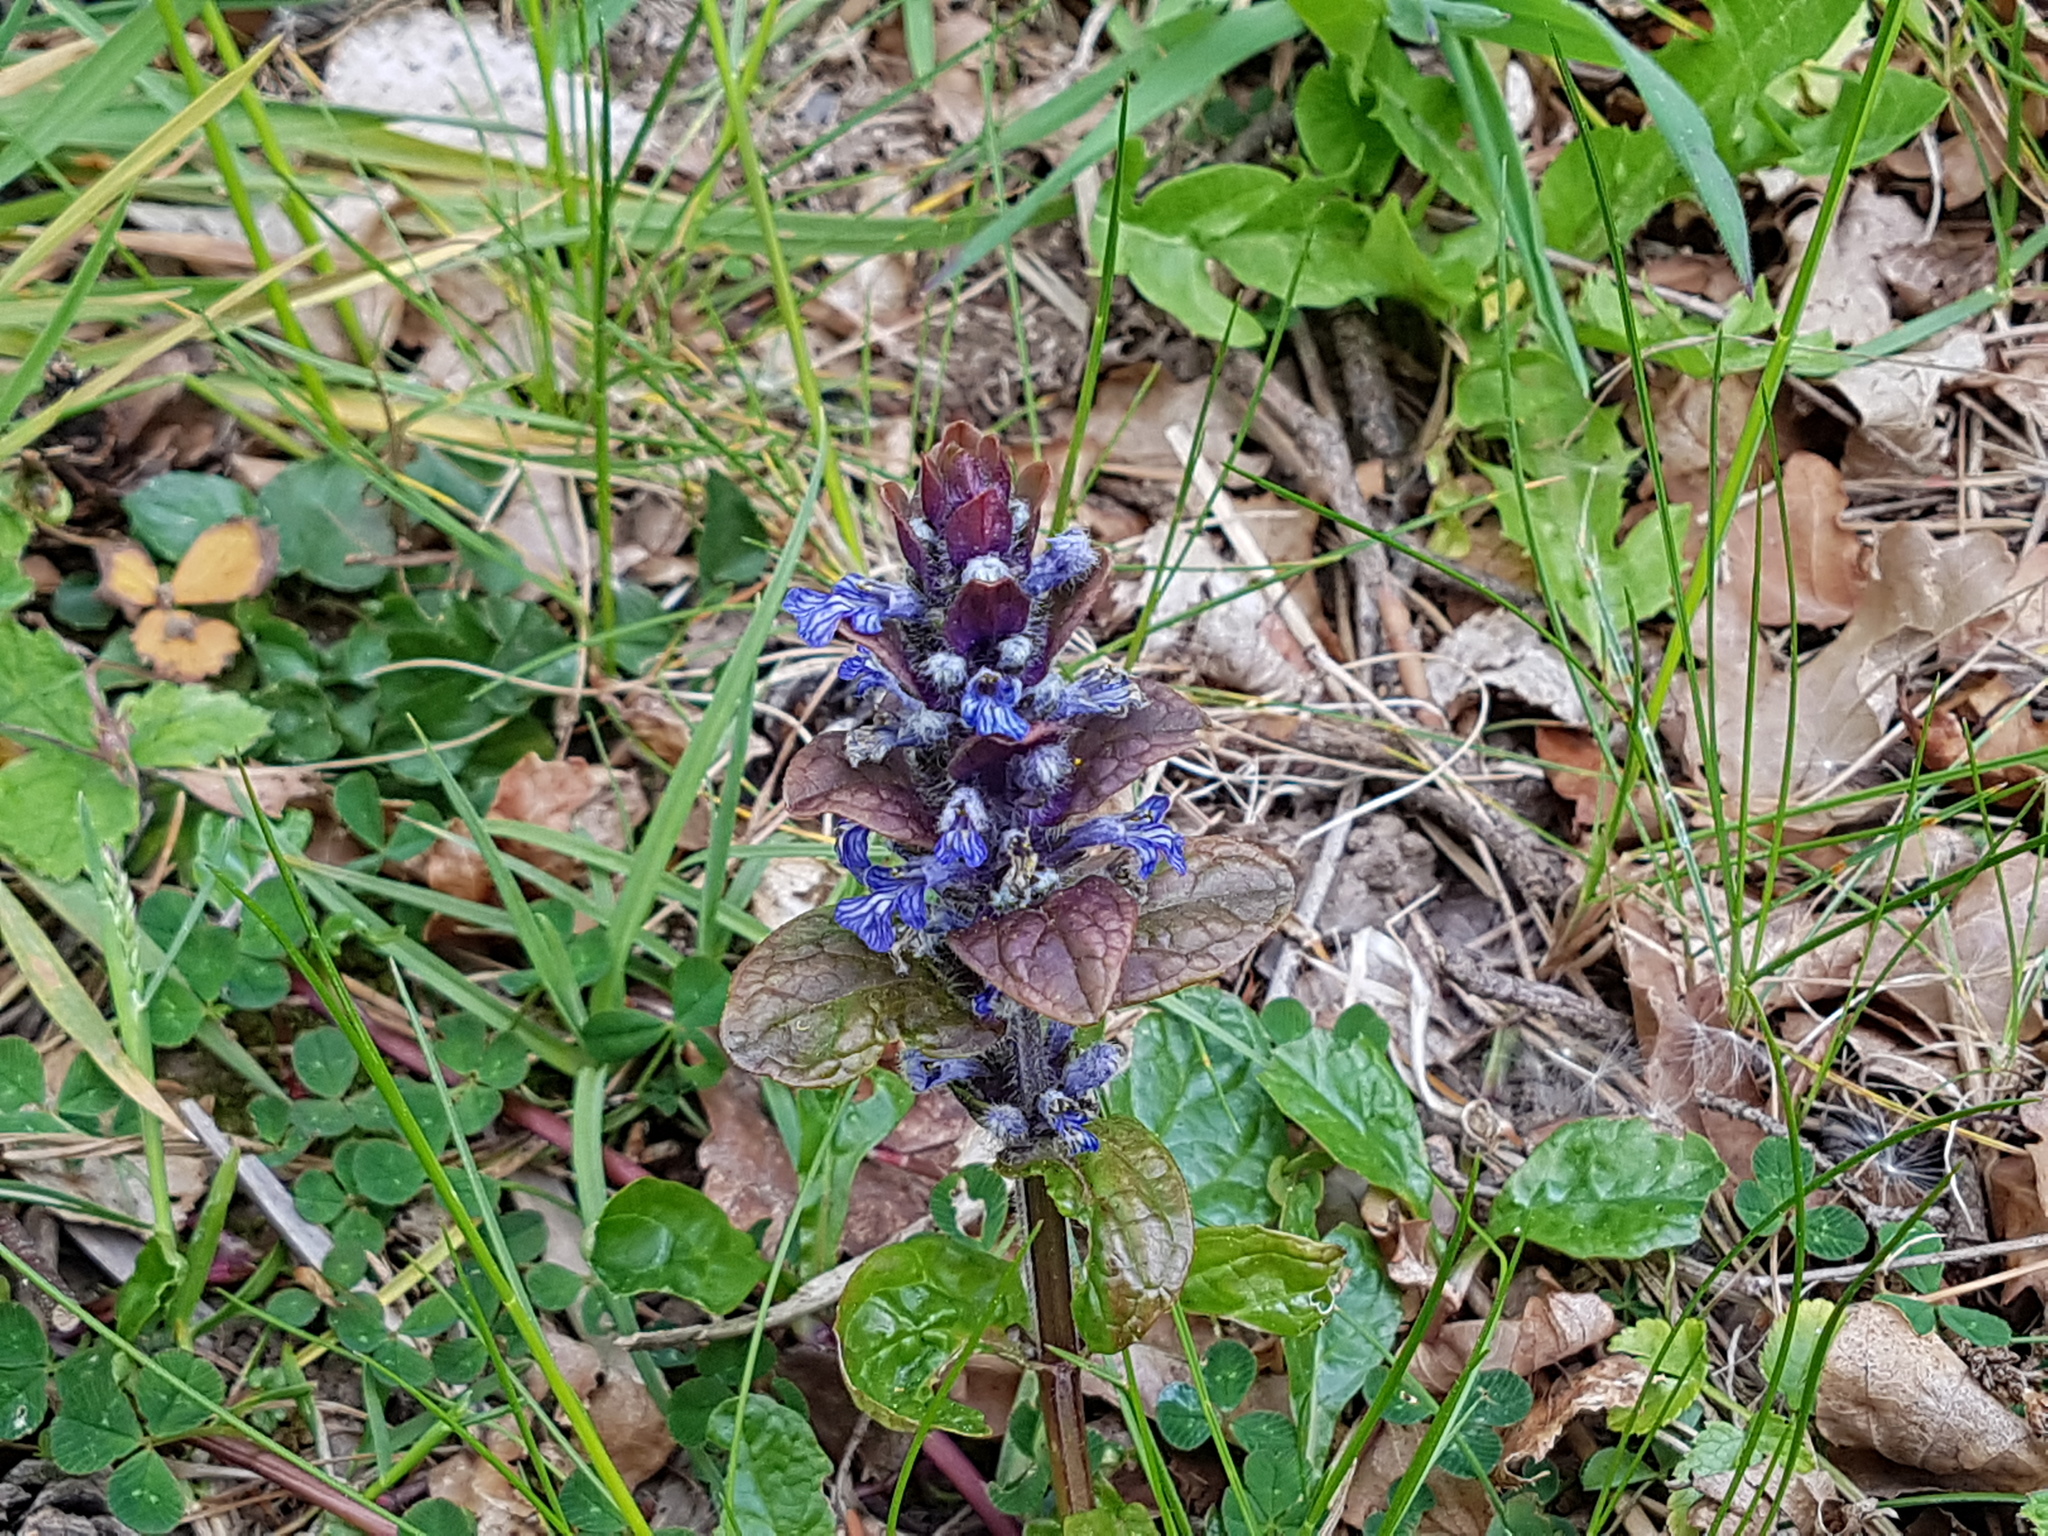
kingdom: Plantae
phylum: Tracheophyta
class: Magnoliopsida
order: Lamiales
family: Lamiaceae
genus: Ajuga
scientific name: Ajuga reptans
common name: Bugle
